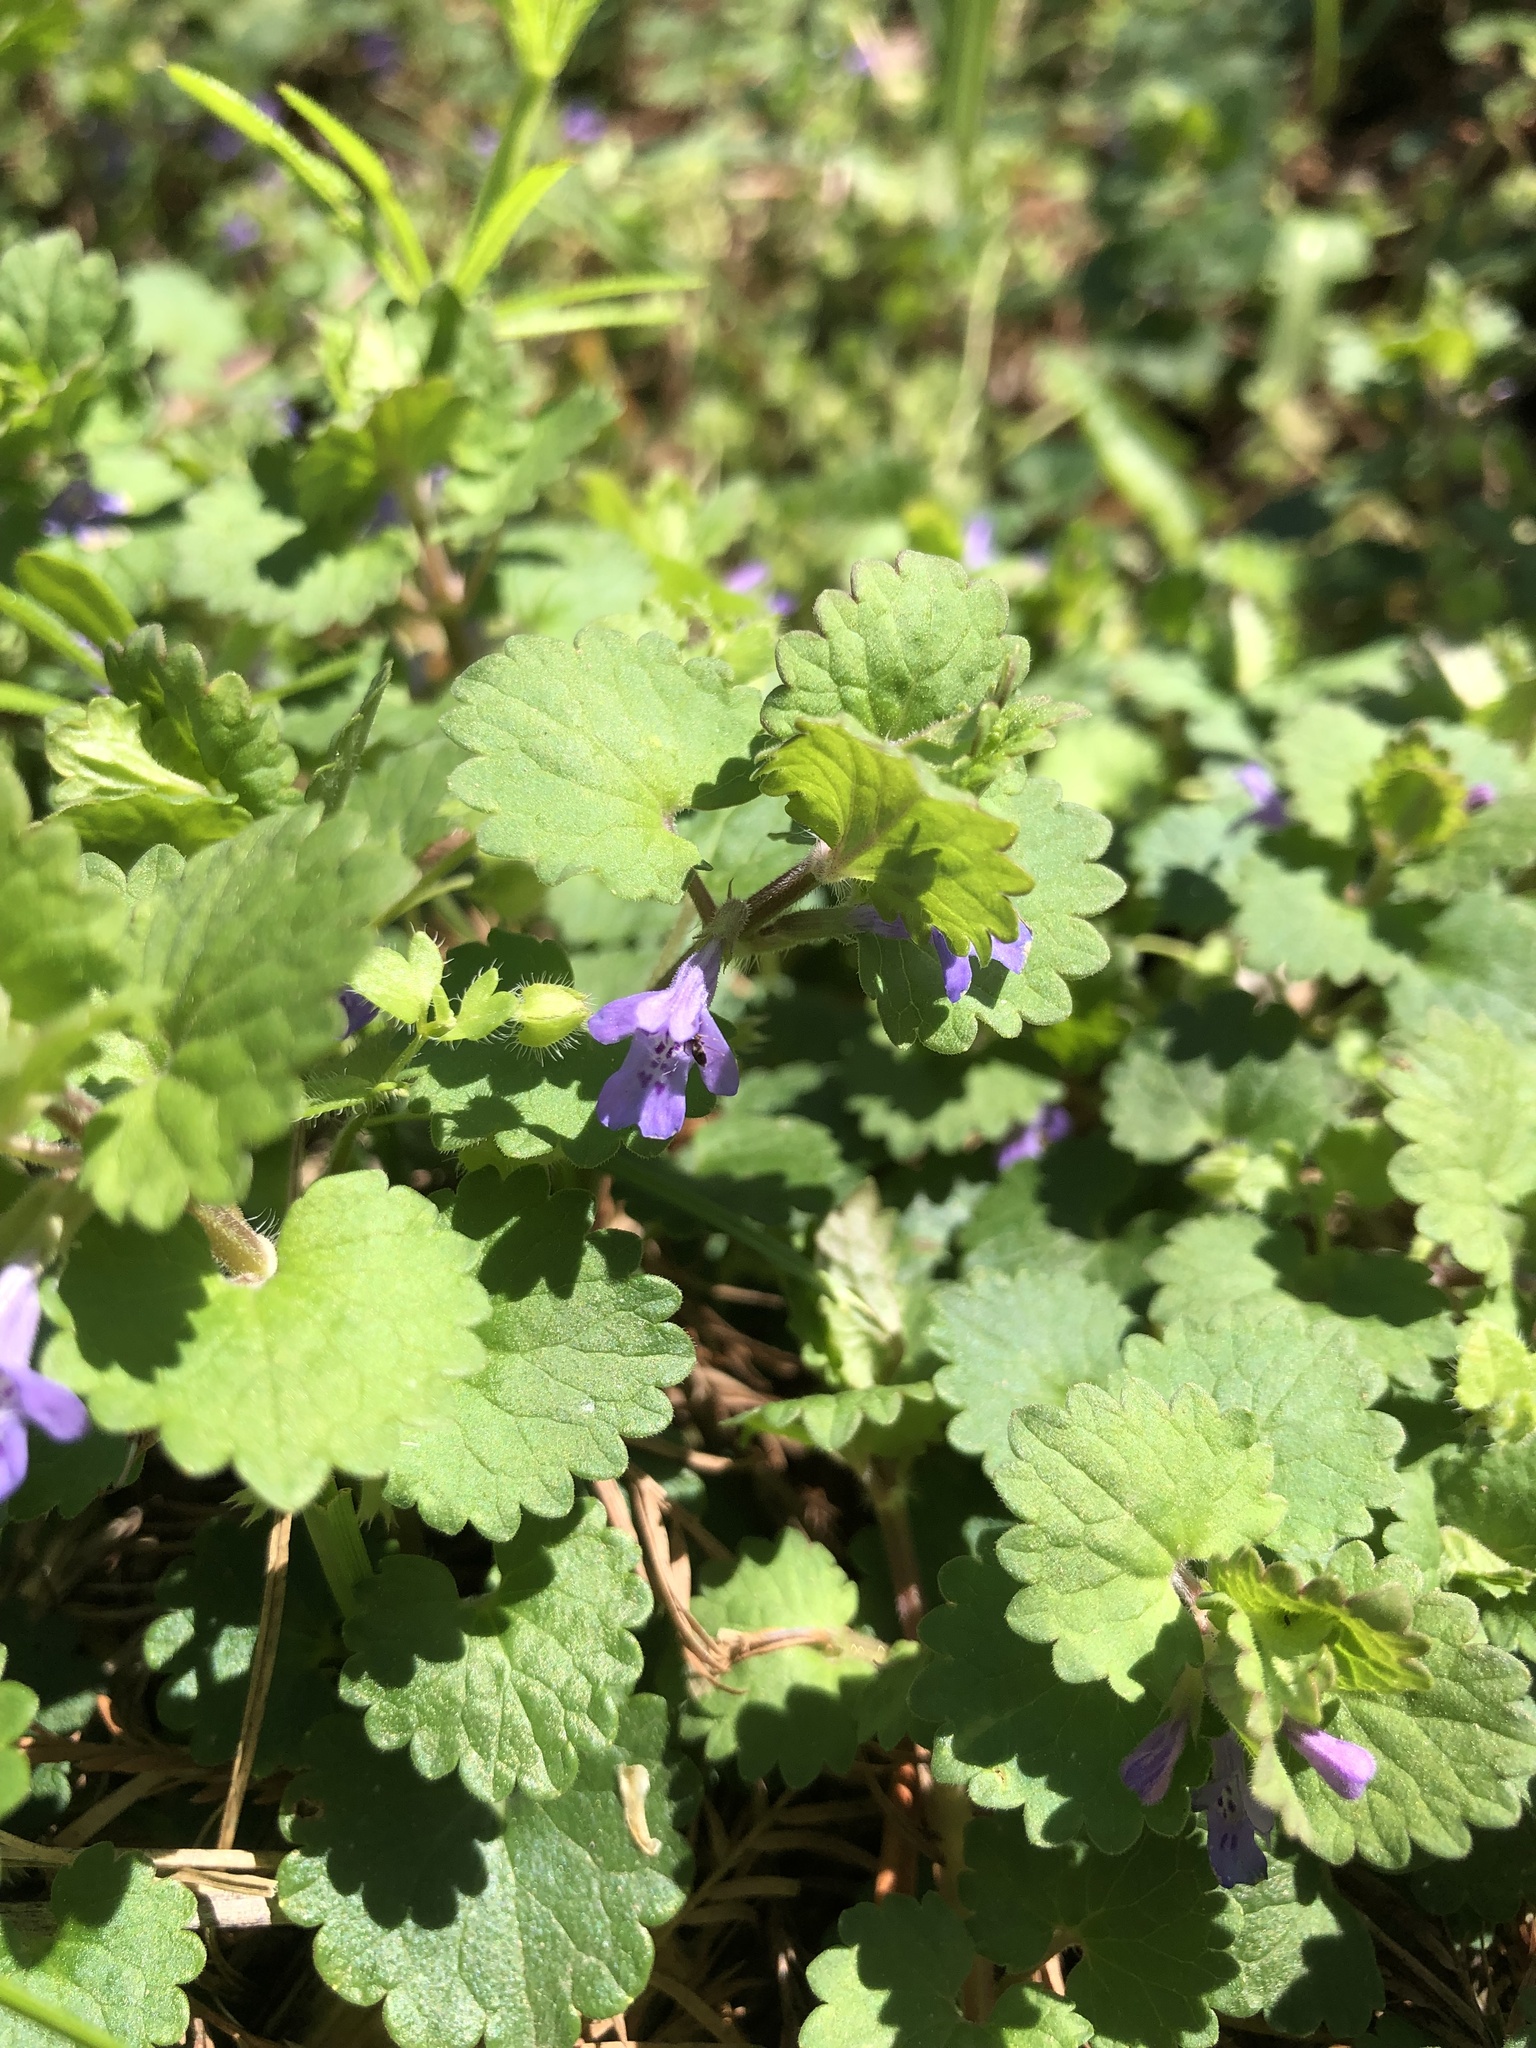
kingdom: Plantae
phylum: Tracheophyta
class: Magnoliopsida
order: Lamiales
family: Lamiaceae
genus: Glechoma
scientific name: Glechoma hederacea
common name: Ground ivy
